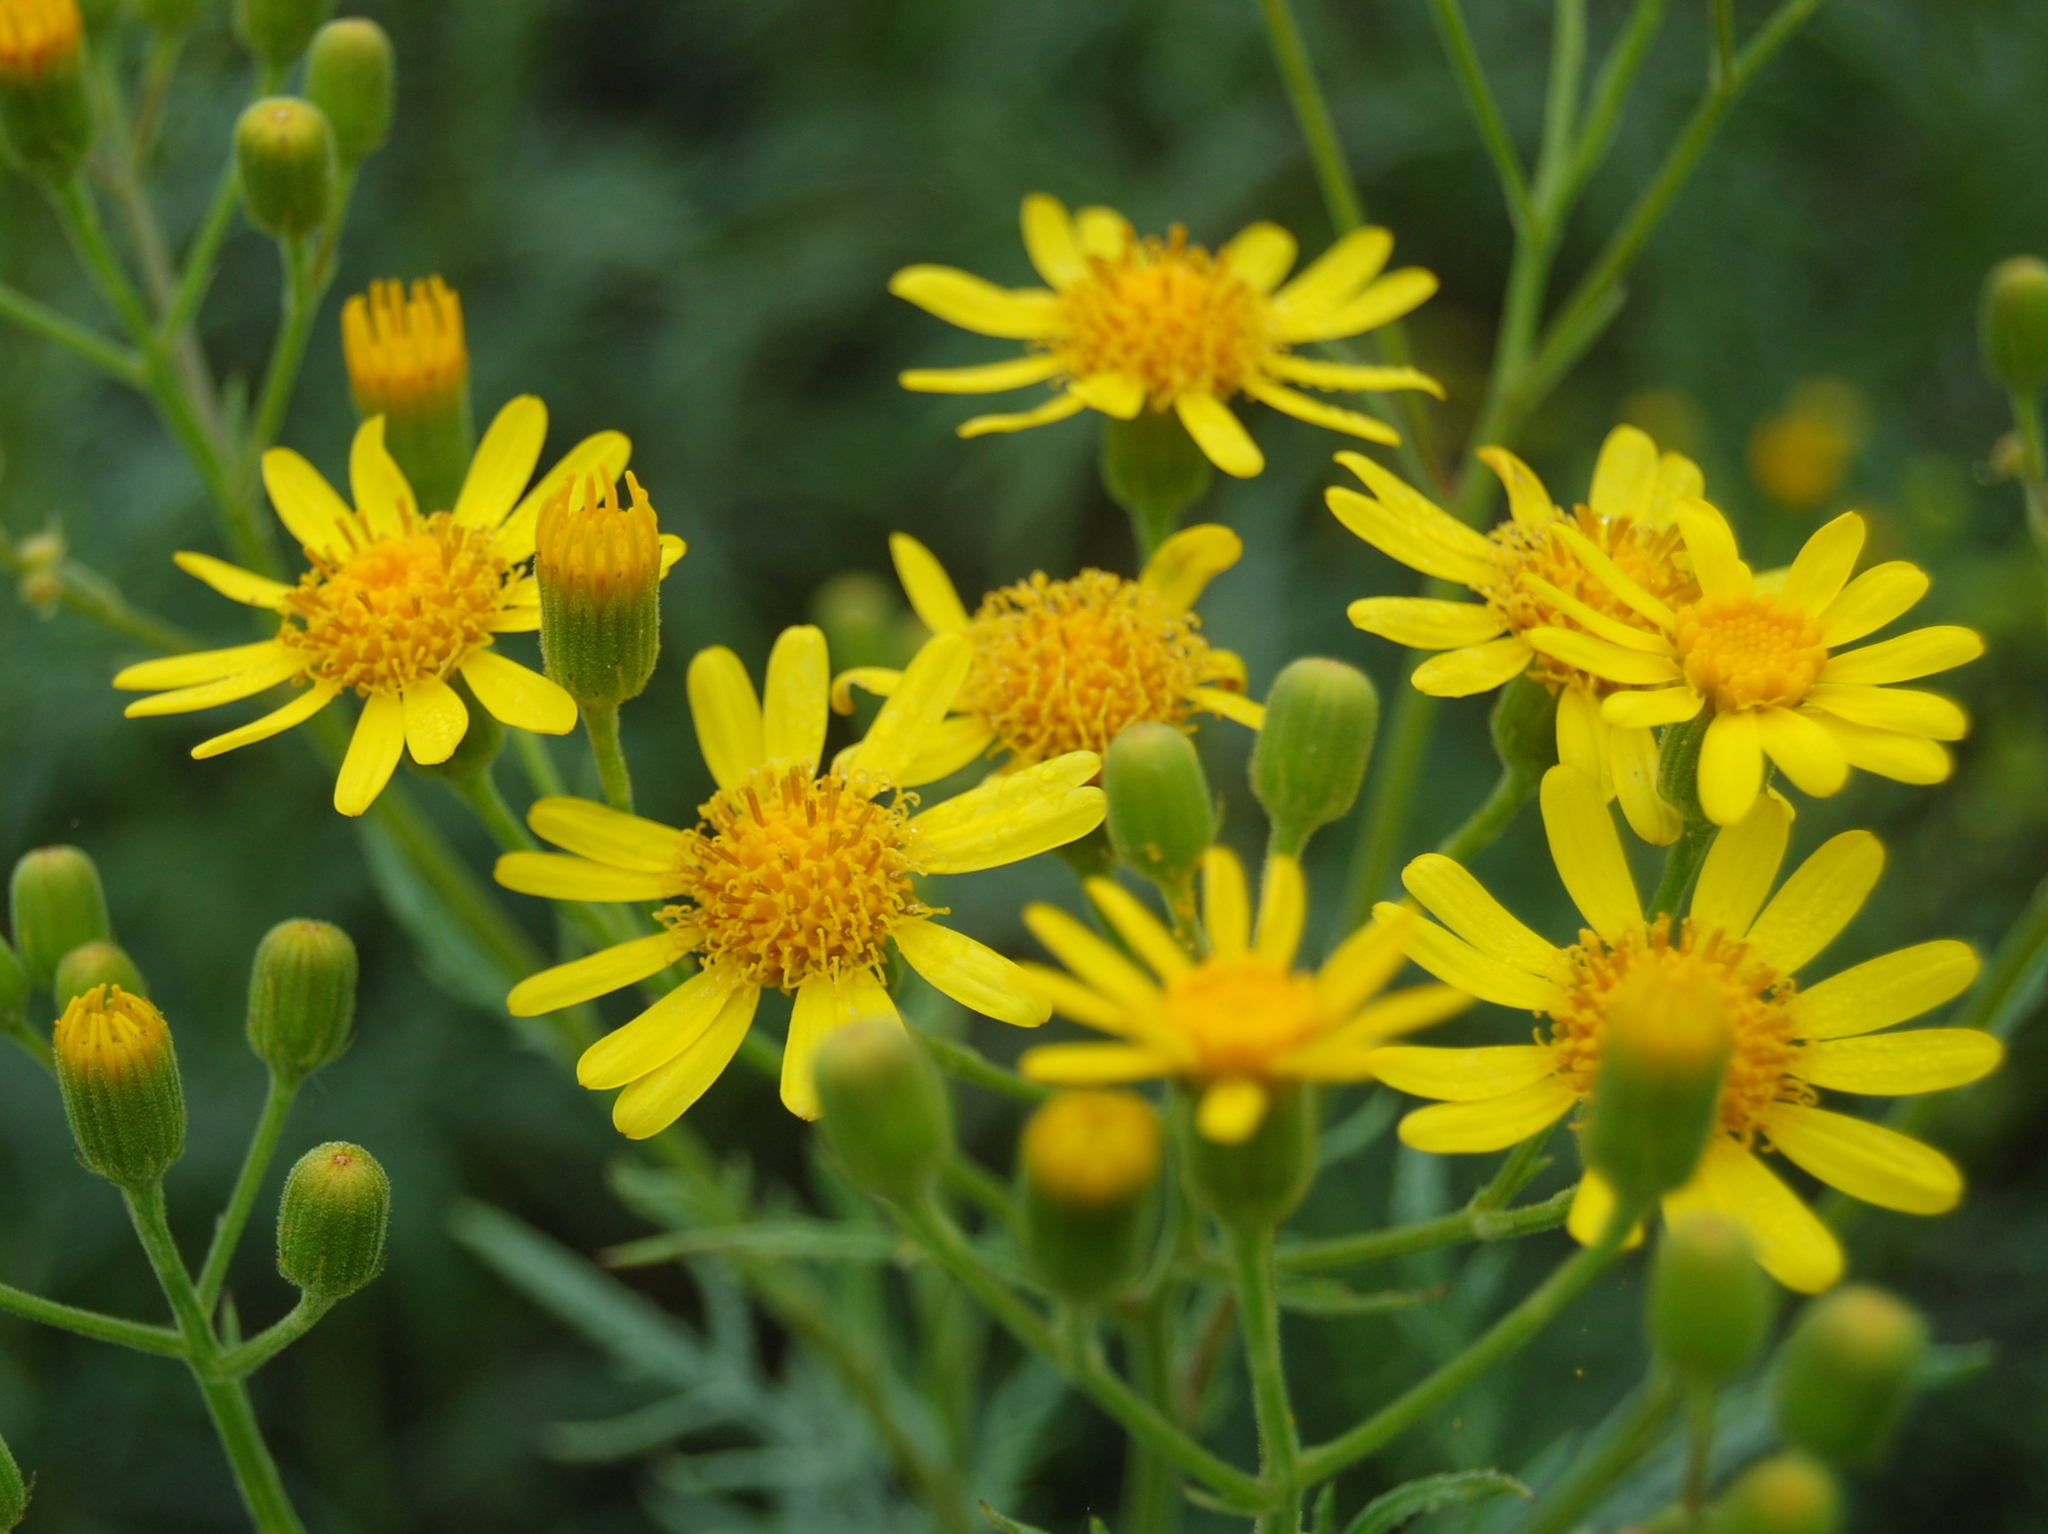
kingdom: Plantae
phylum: Tracheophyta
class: Magnoliopsida
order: Asterales
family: Asteraceae
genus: Senecio
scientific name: Senecio brasiliensis
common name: Hemp-leaf ragwort
